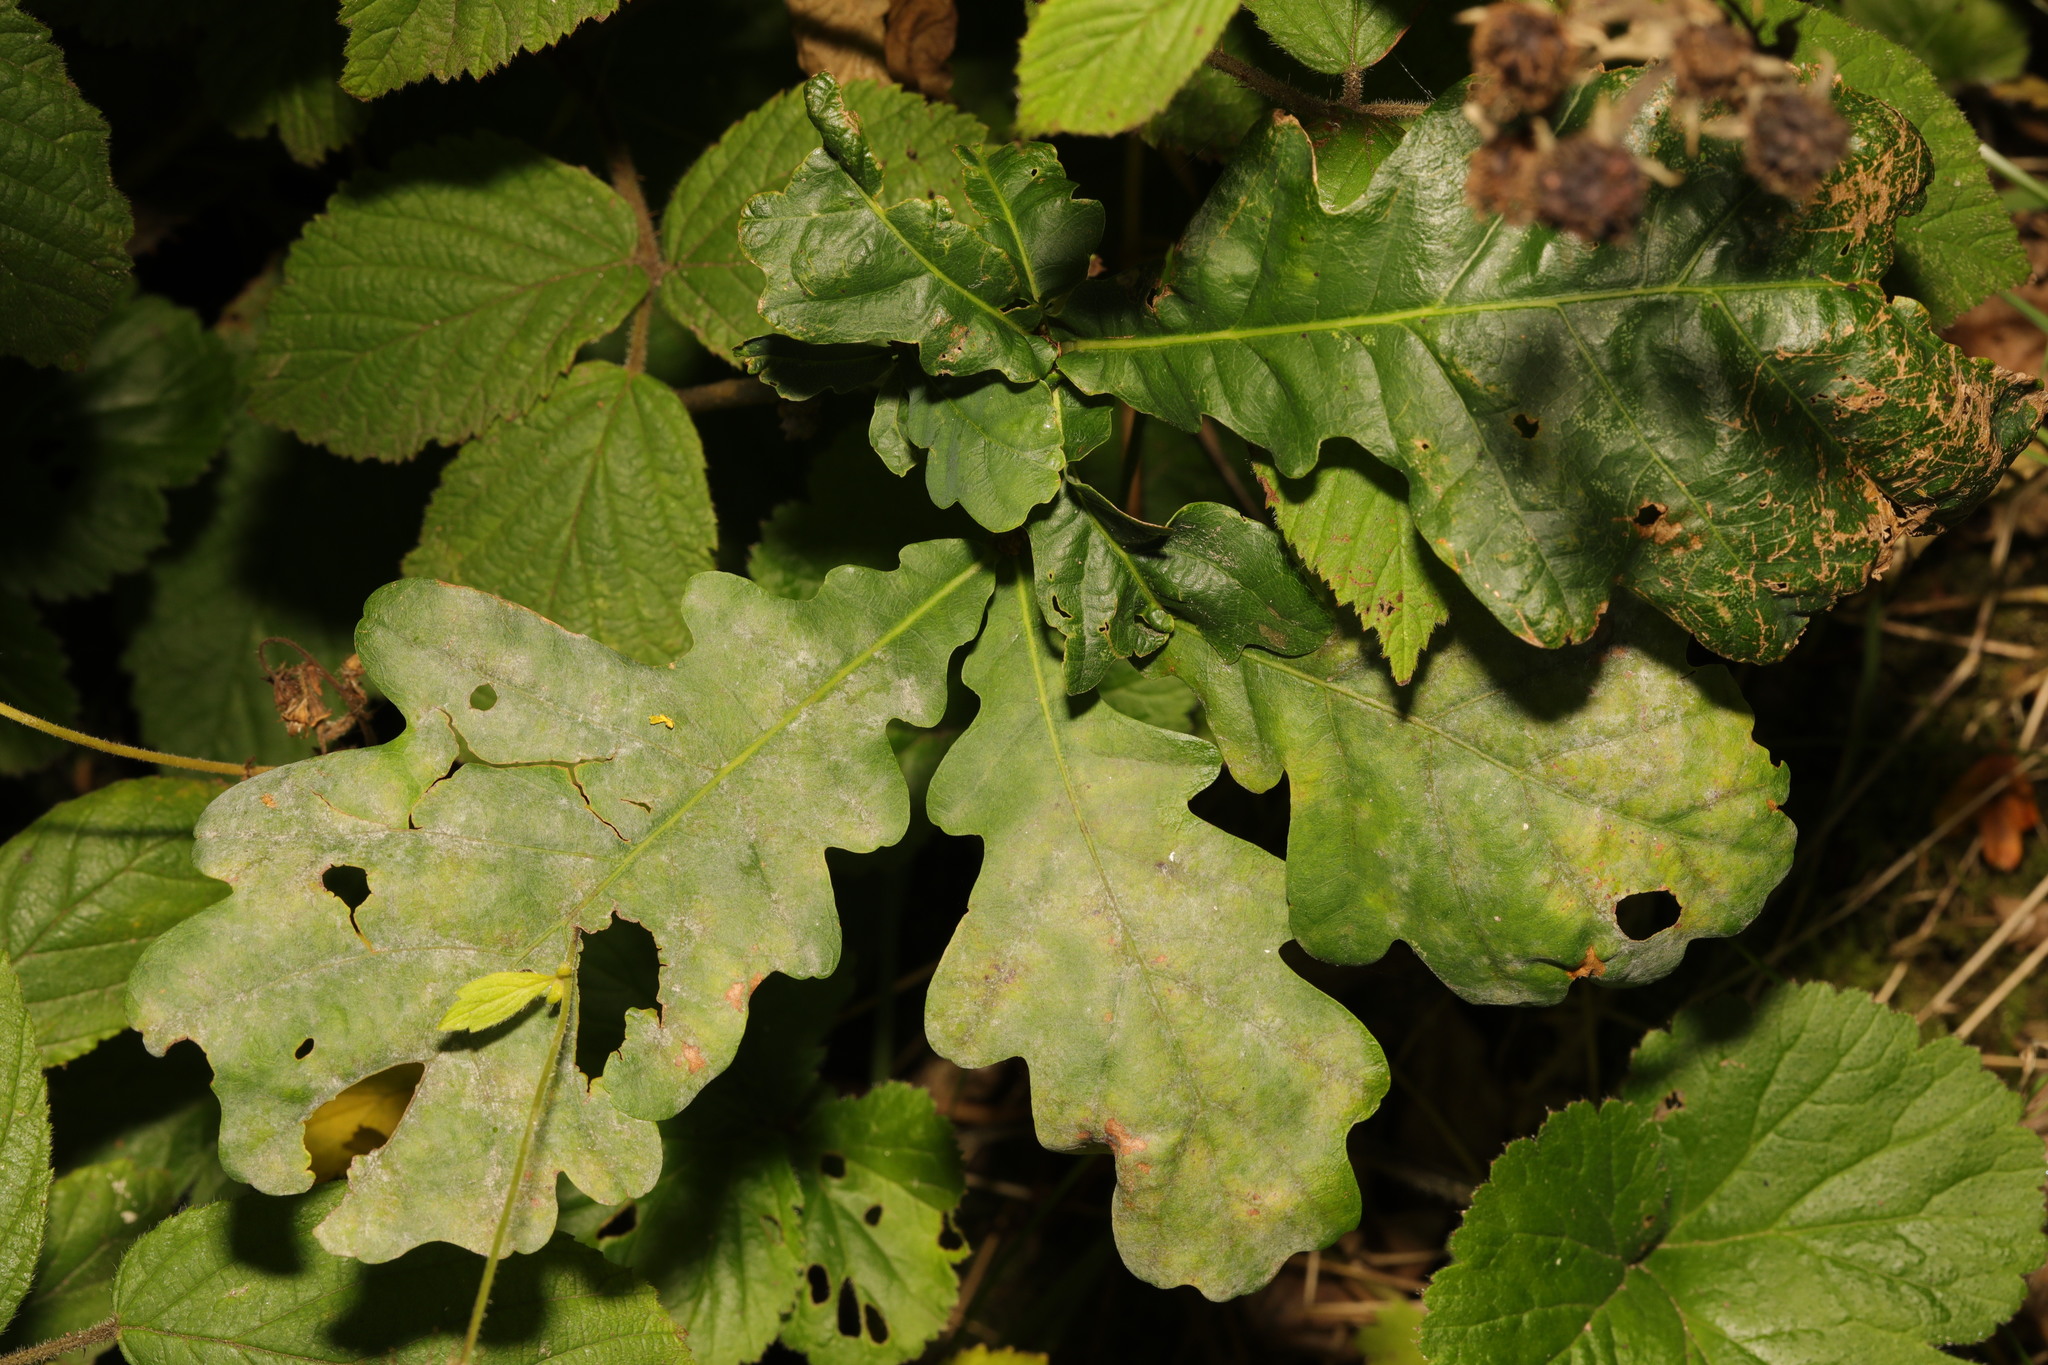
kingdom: Fungi
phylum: Ascomycota
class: Leotiomycetes
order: Helotiales
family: Erysiphaceae
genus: Erysiphe
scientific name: Erysiphe alphitoides
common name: Oak mildew
